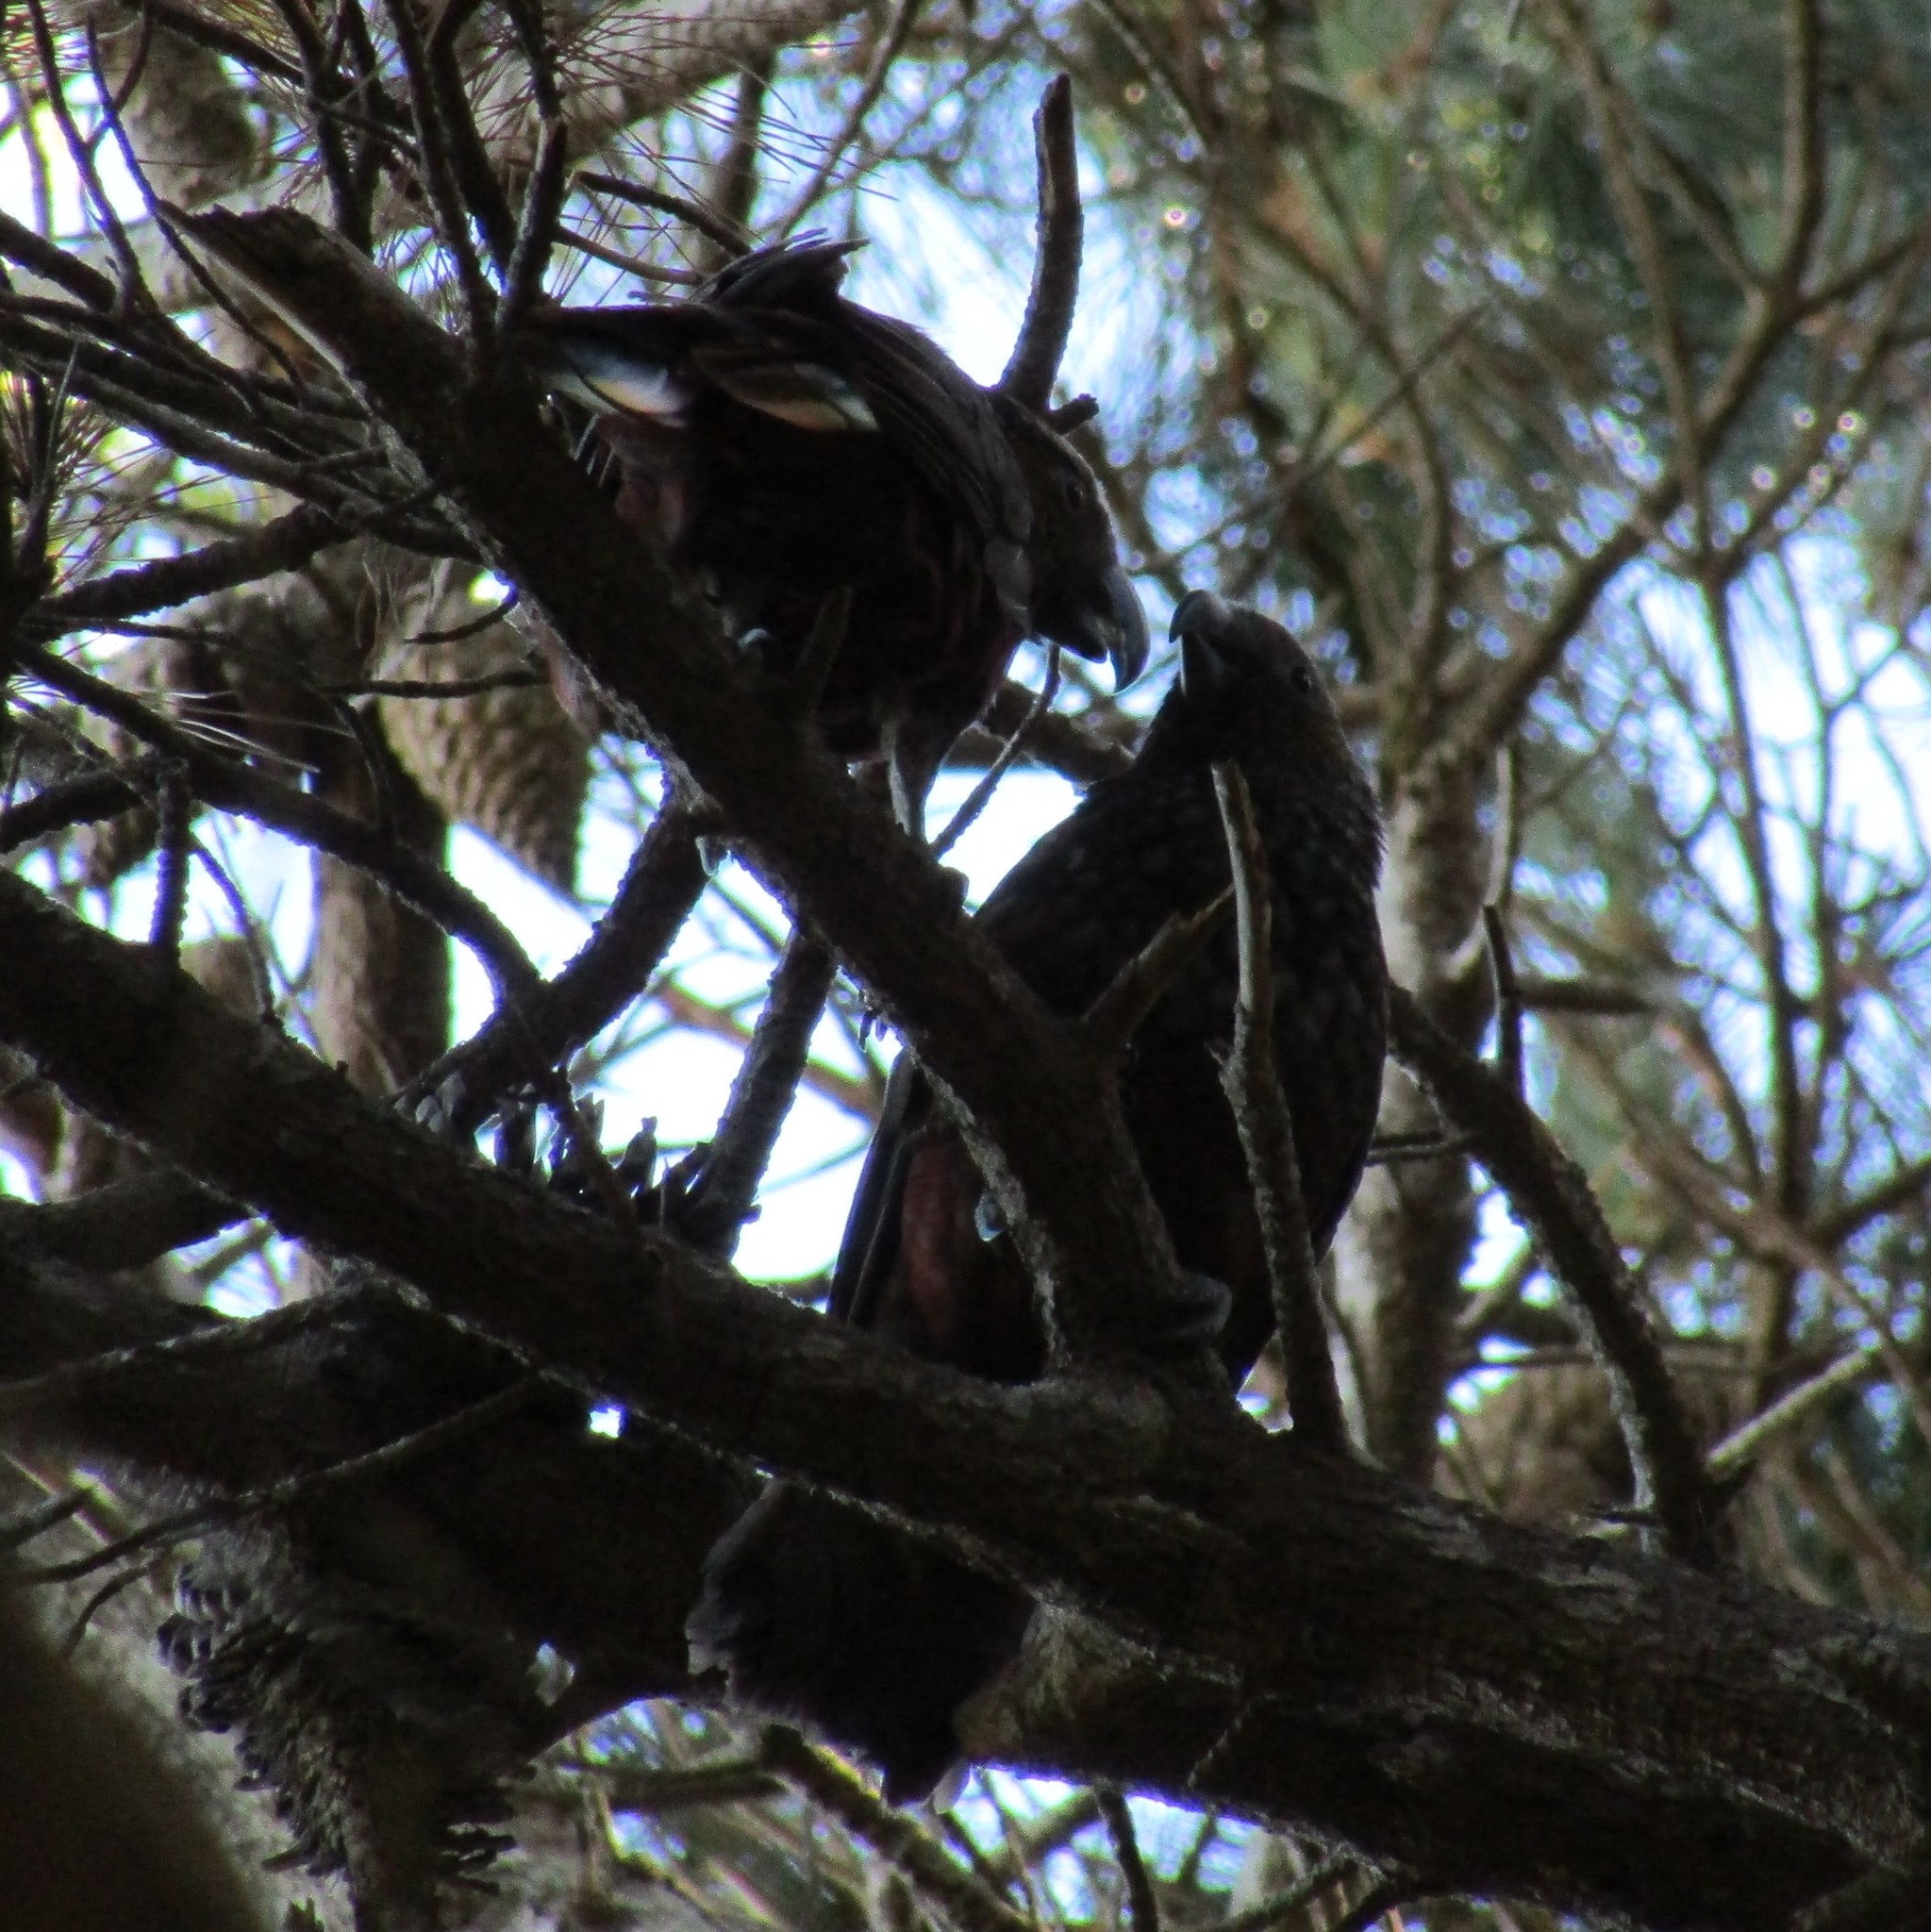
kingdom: Animalia
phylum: Chordata
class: Aves
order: Psittaciformes
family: Psittacidae
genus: Nestor
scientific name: Nestor meridionalis
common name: New zealand kaka
